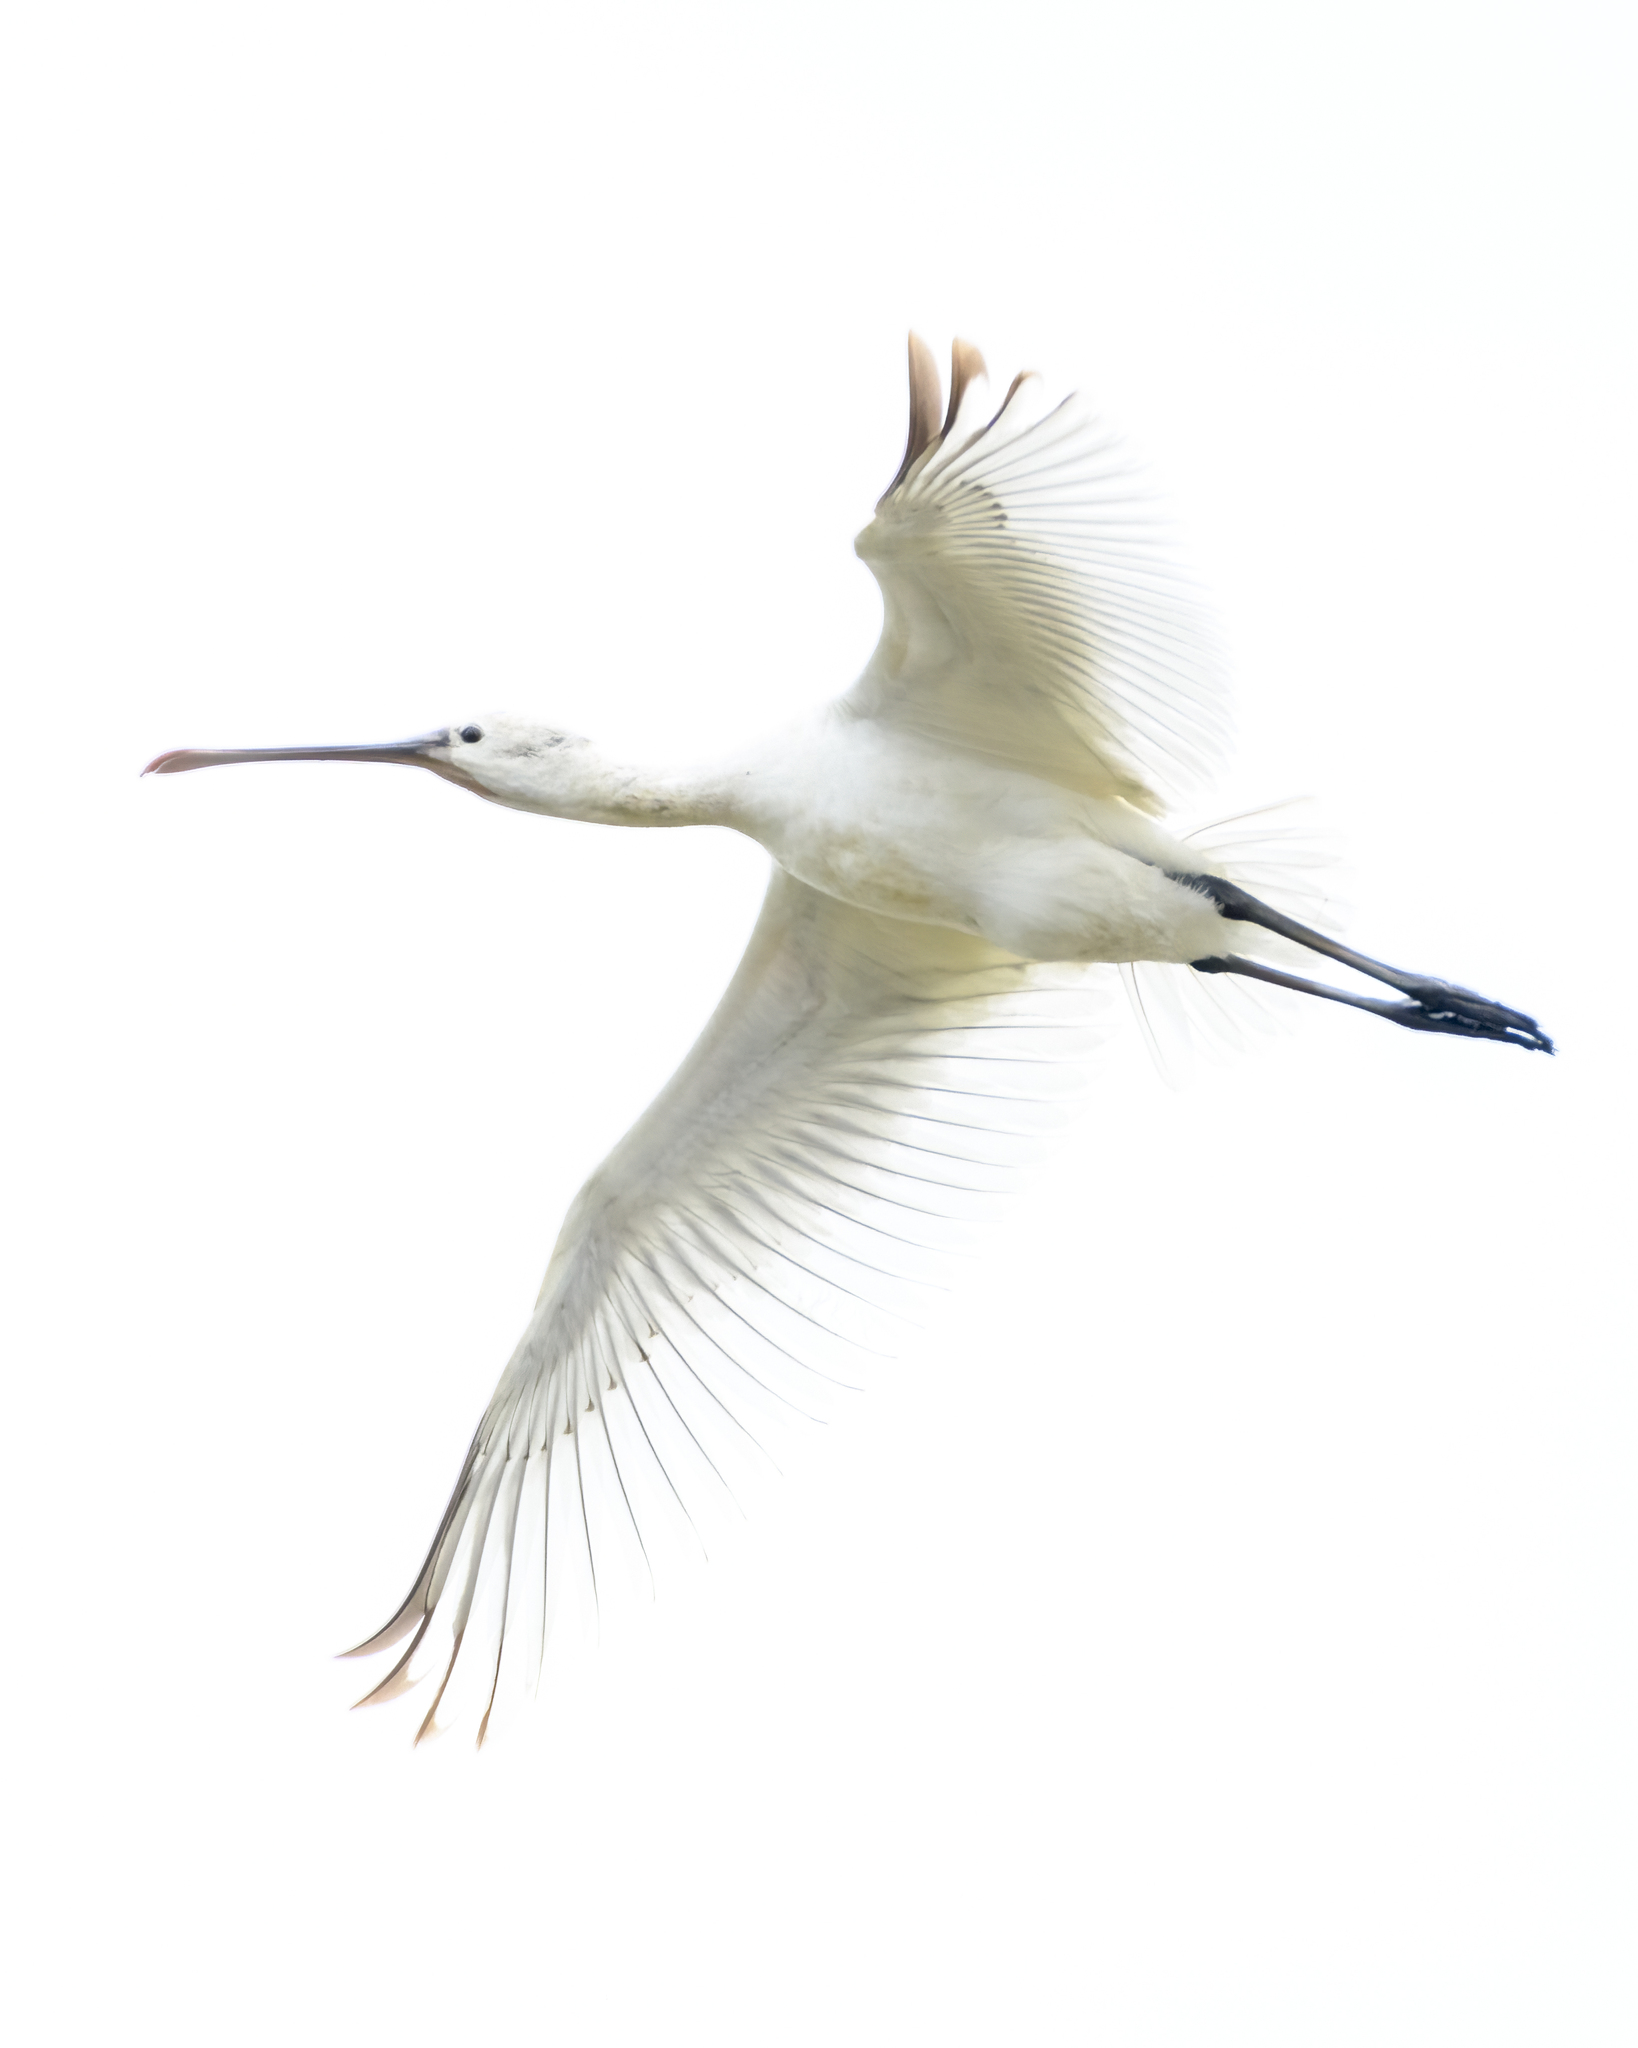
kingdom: Animalia
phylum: Chordata
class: Aves
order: Pelecaniformes
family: Threskiornithidae
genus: Platalea
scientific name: Platalea leucorodia
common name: Eurasian spoonbill
